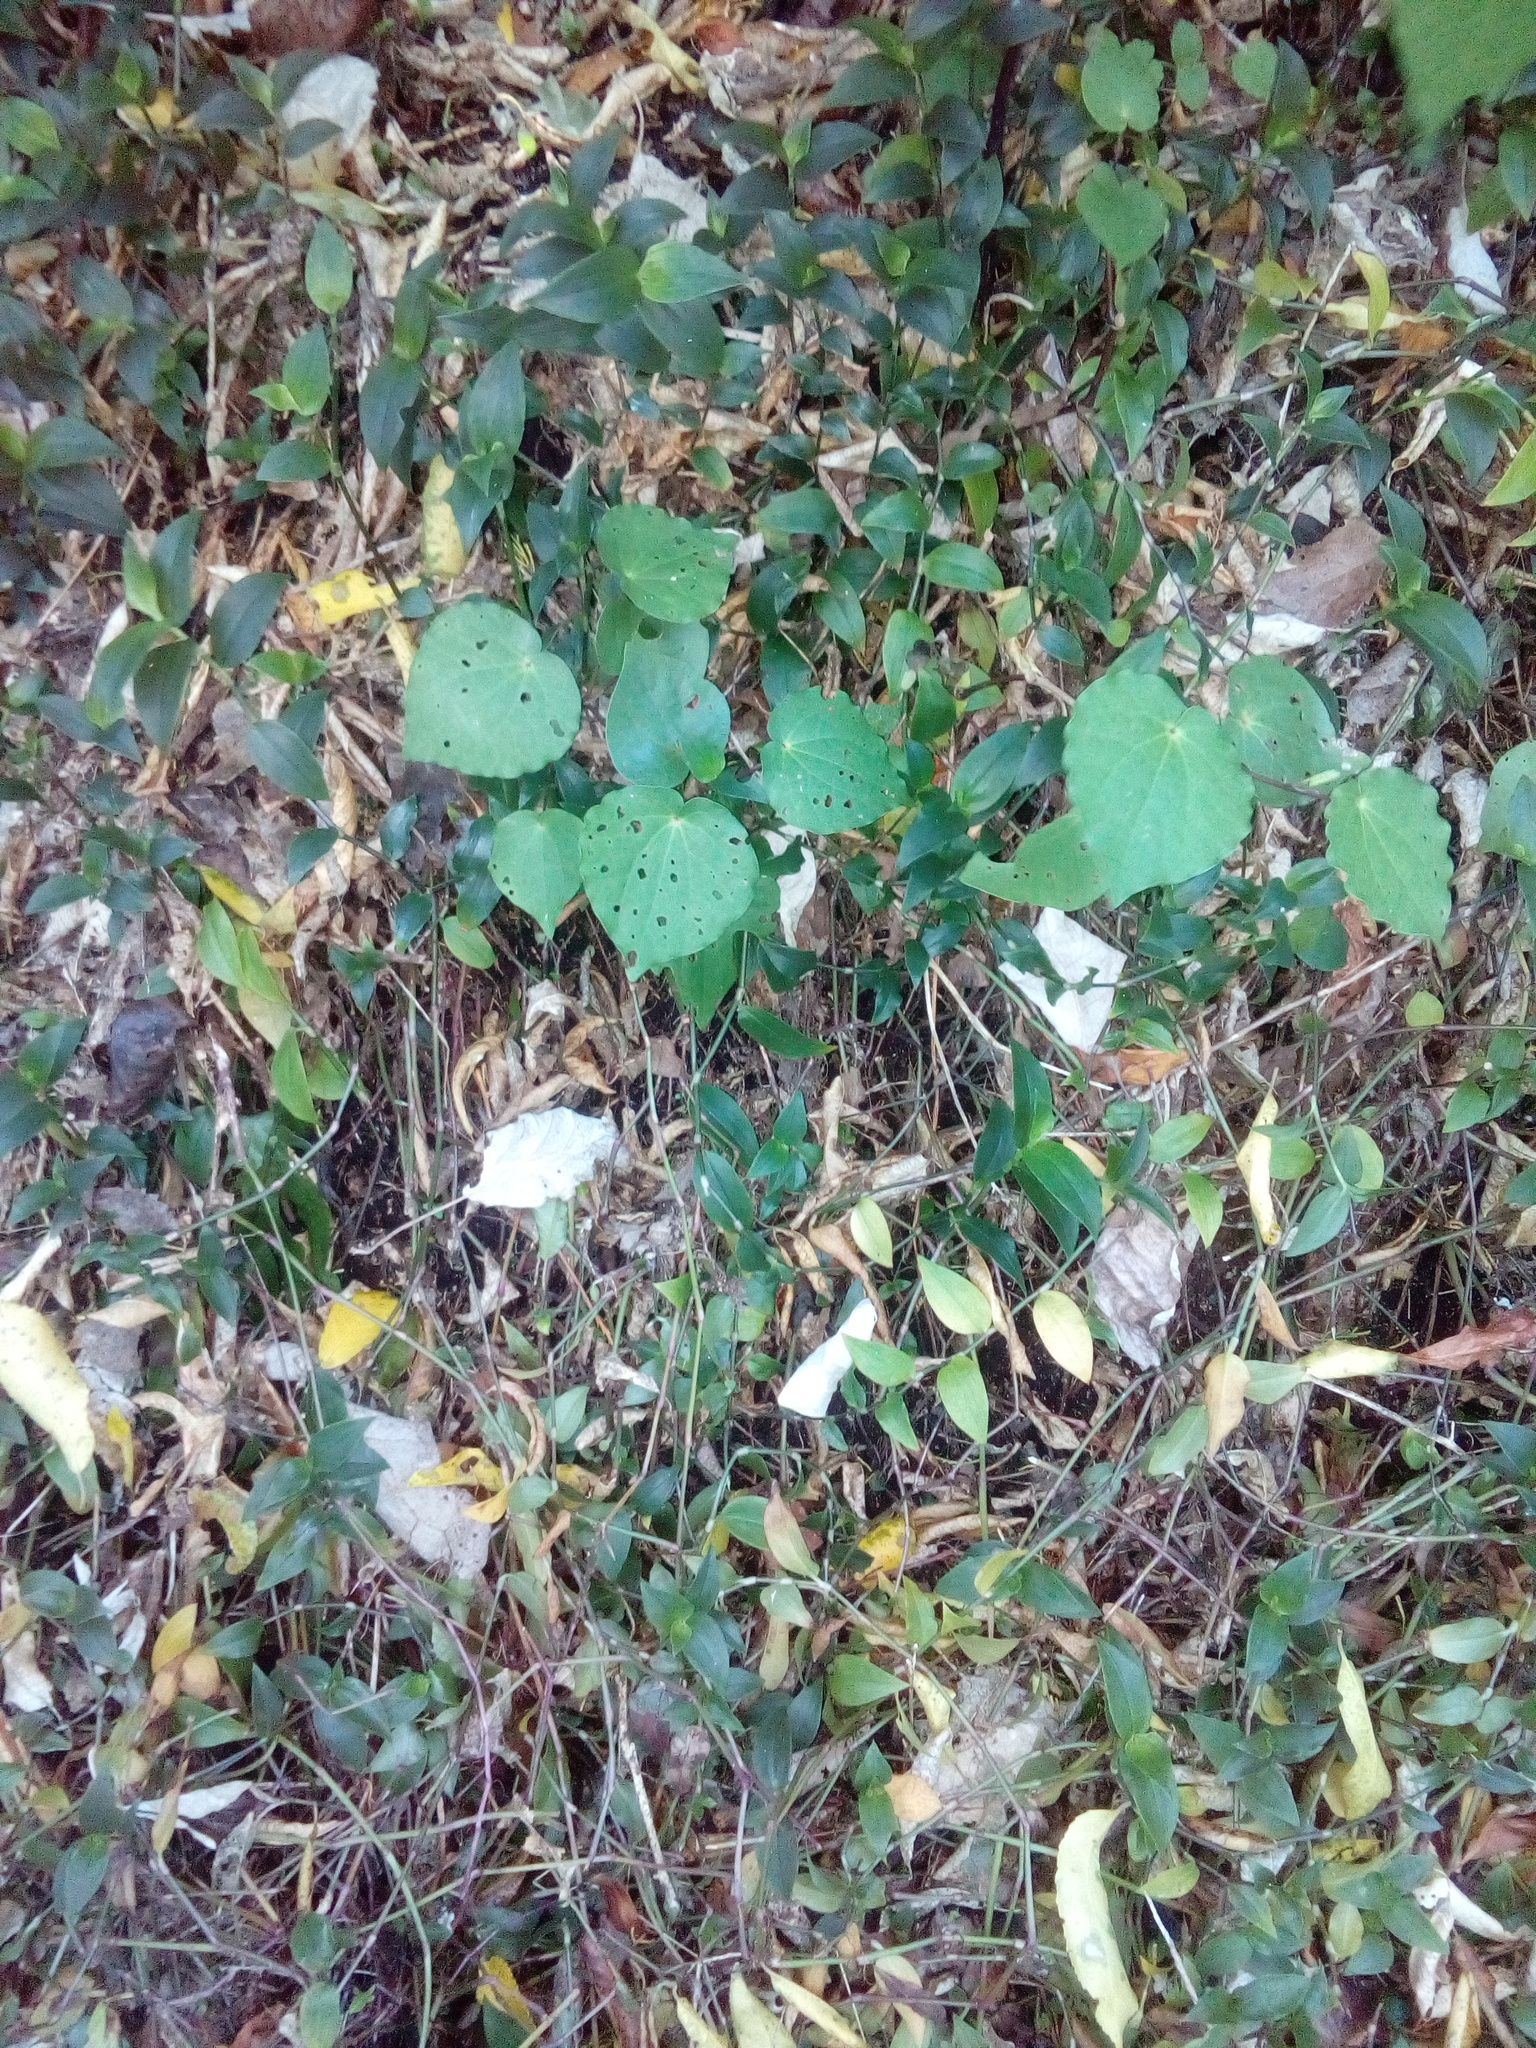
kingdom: Plantae
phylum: Tracheophyta
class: Magnoliopsida
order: Piperales
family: Piperaceae
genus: Macropiper
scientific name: Macropiper excelsum
